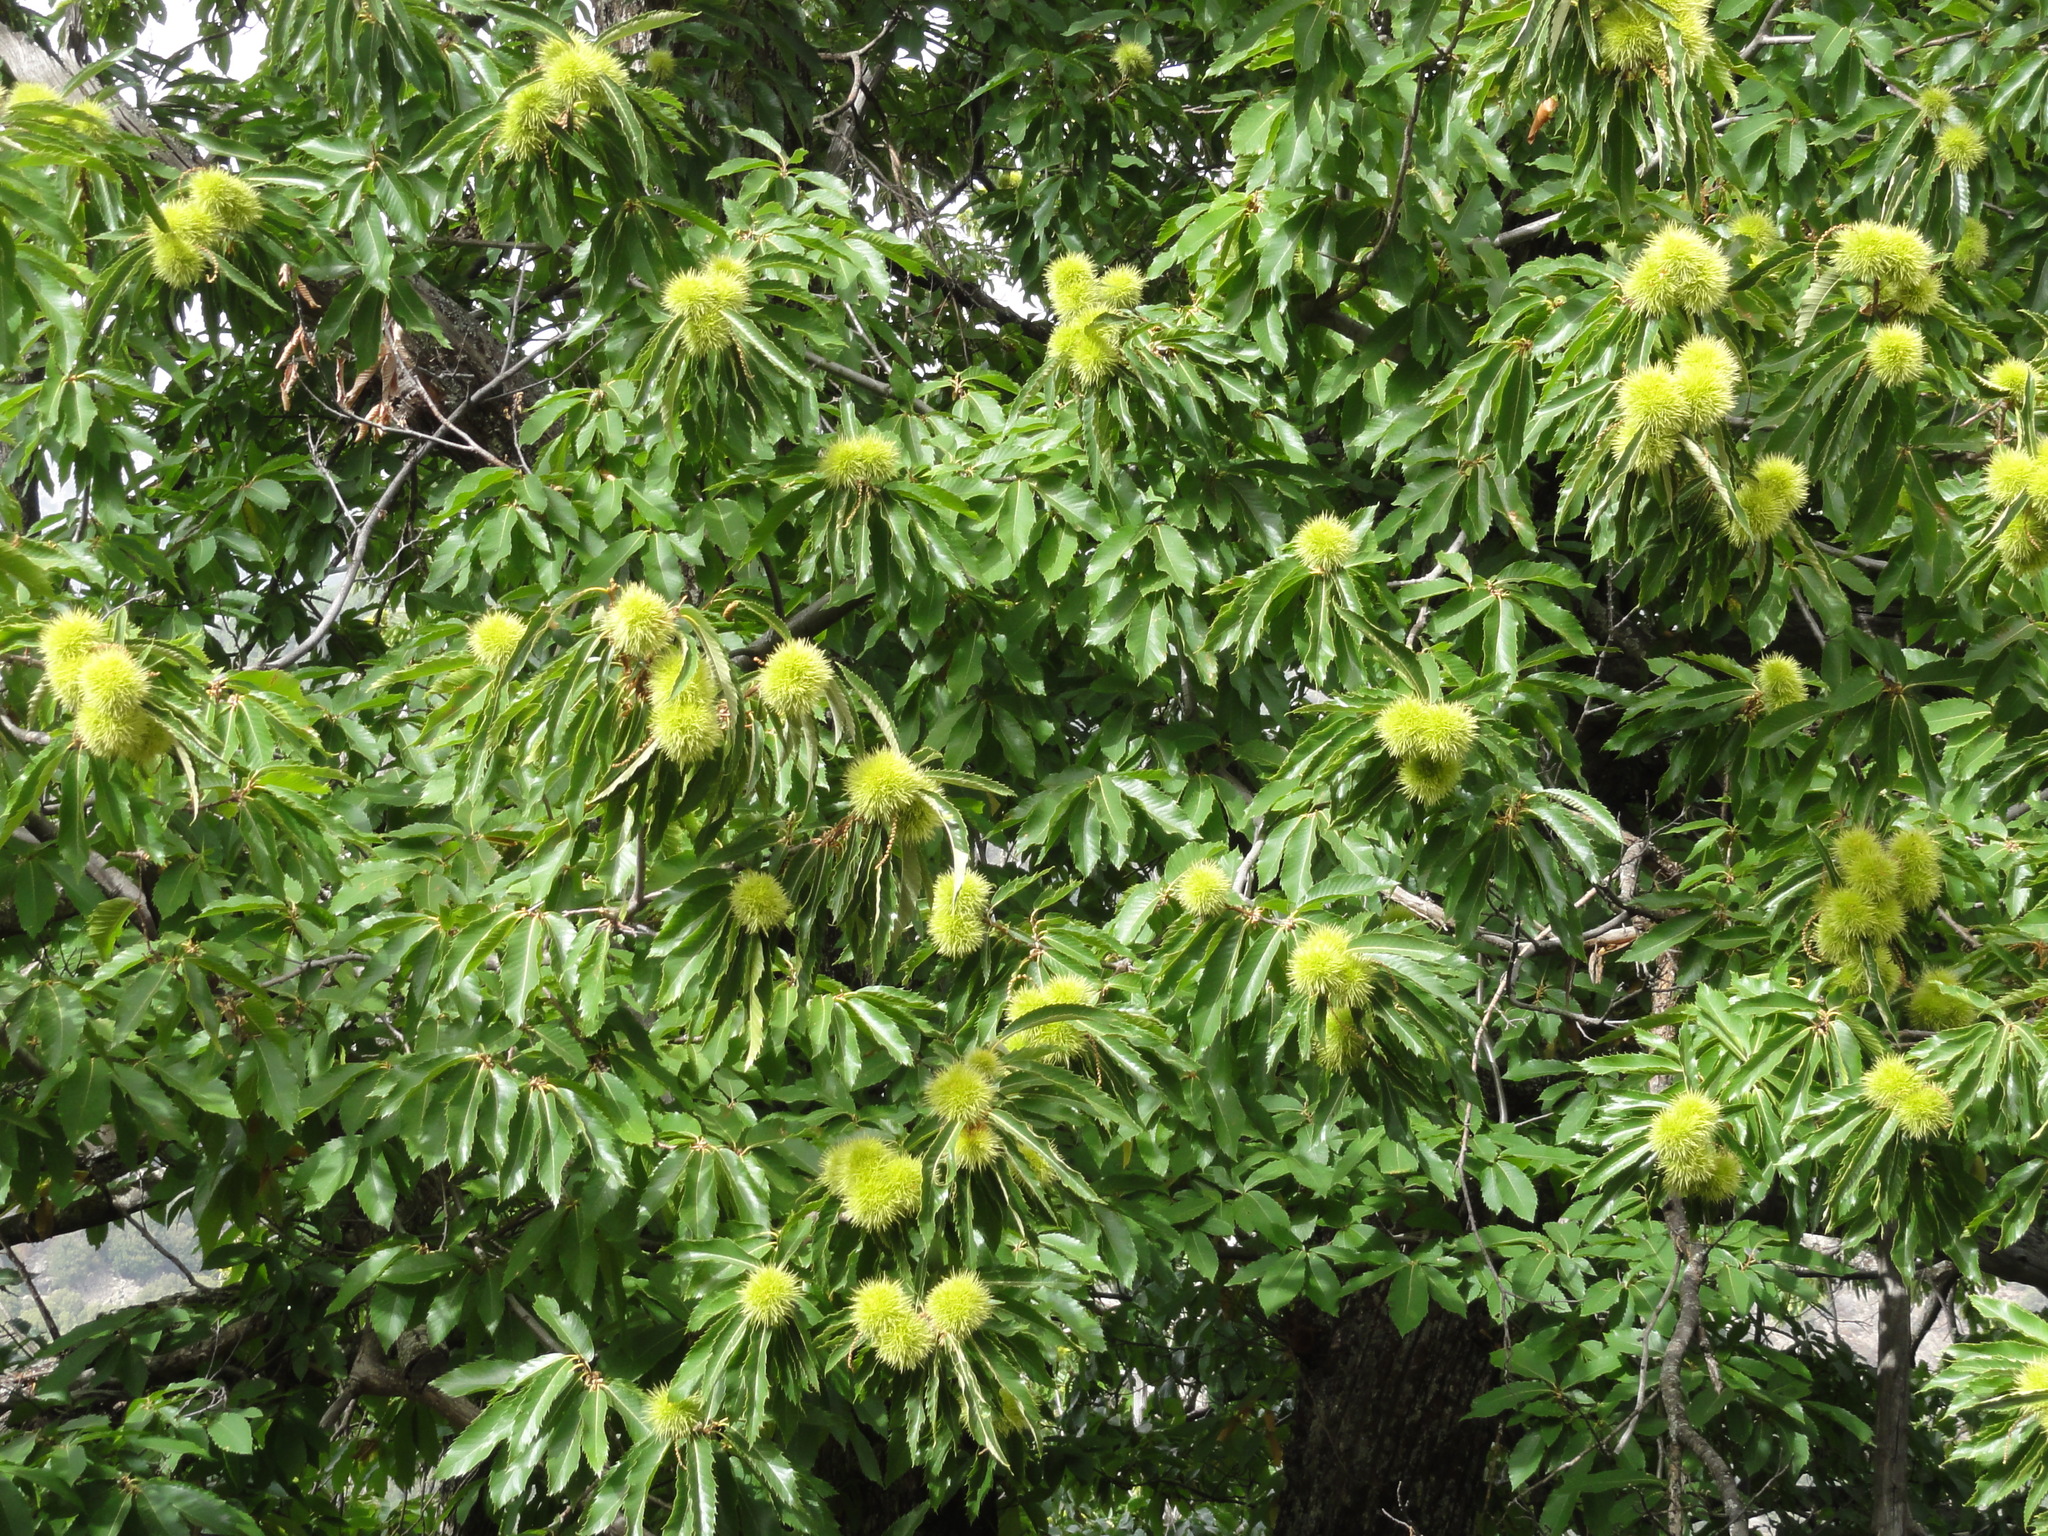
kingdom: Plantae
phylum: Tracheophyta
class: Magnoliopsida
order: Fagales
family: Fagaceae
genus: Castanea
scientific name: Castanea sativa
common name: Sweet chestnut
